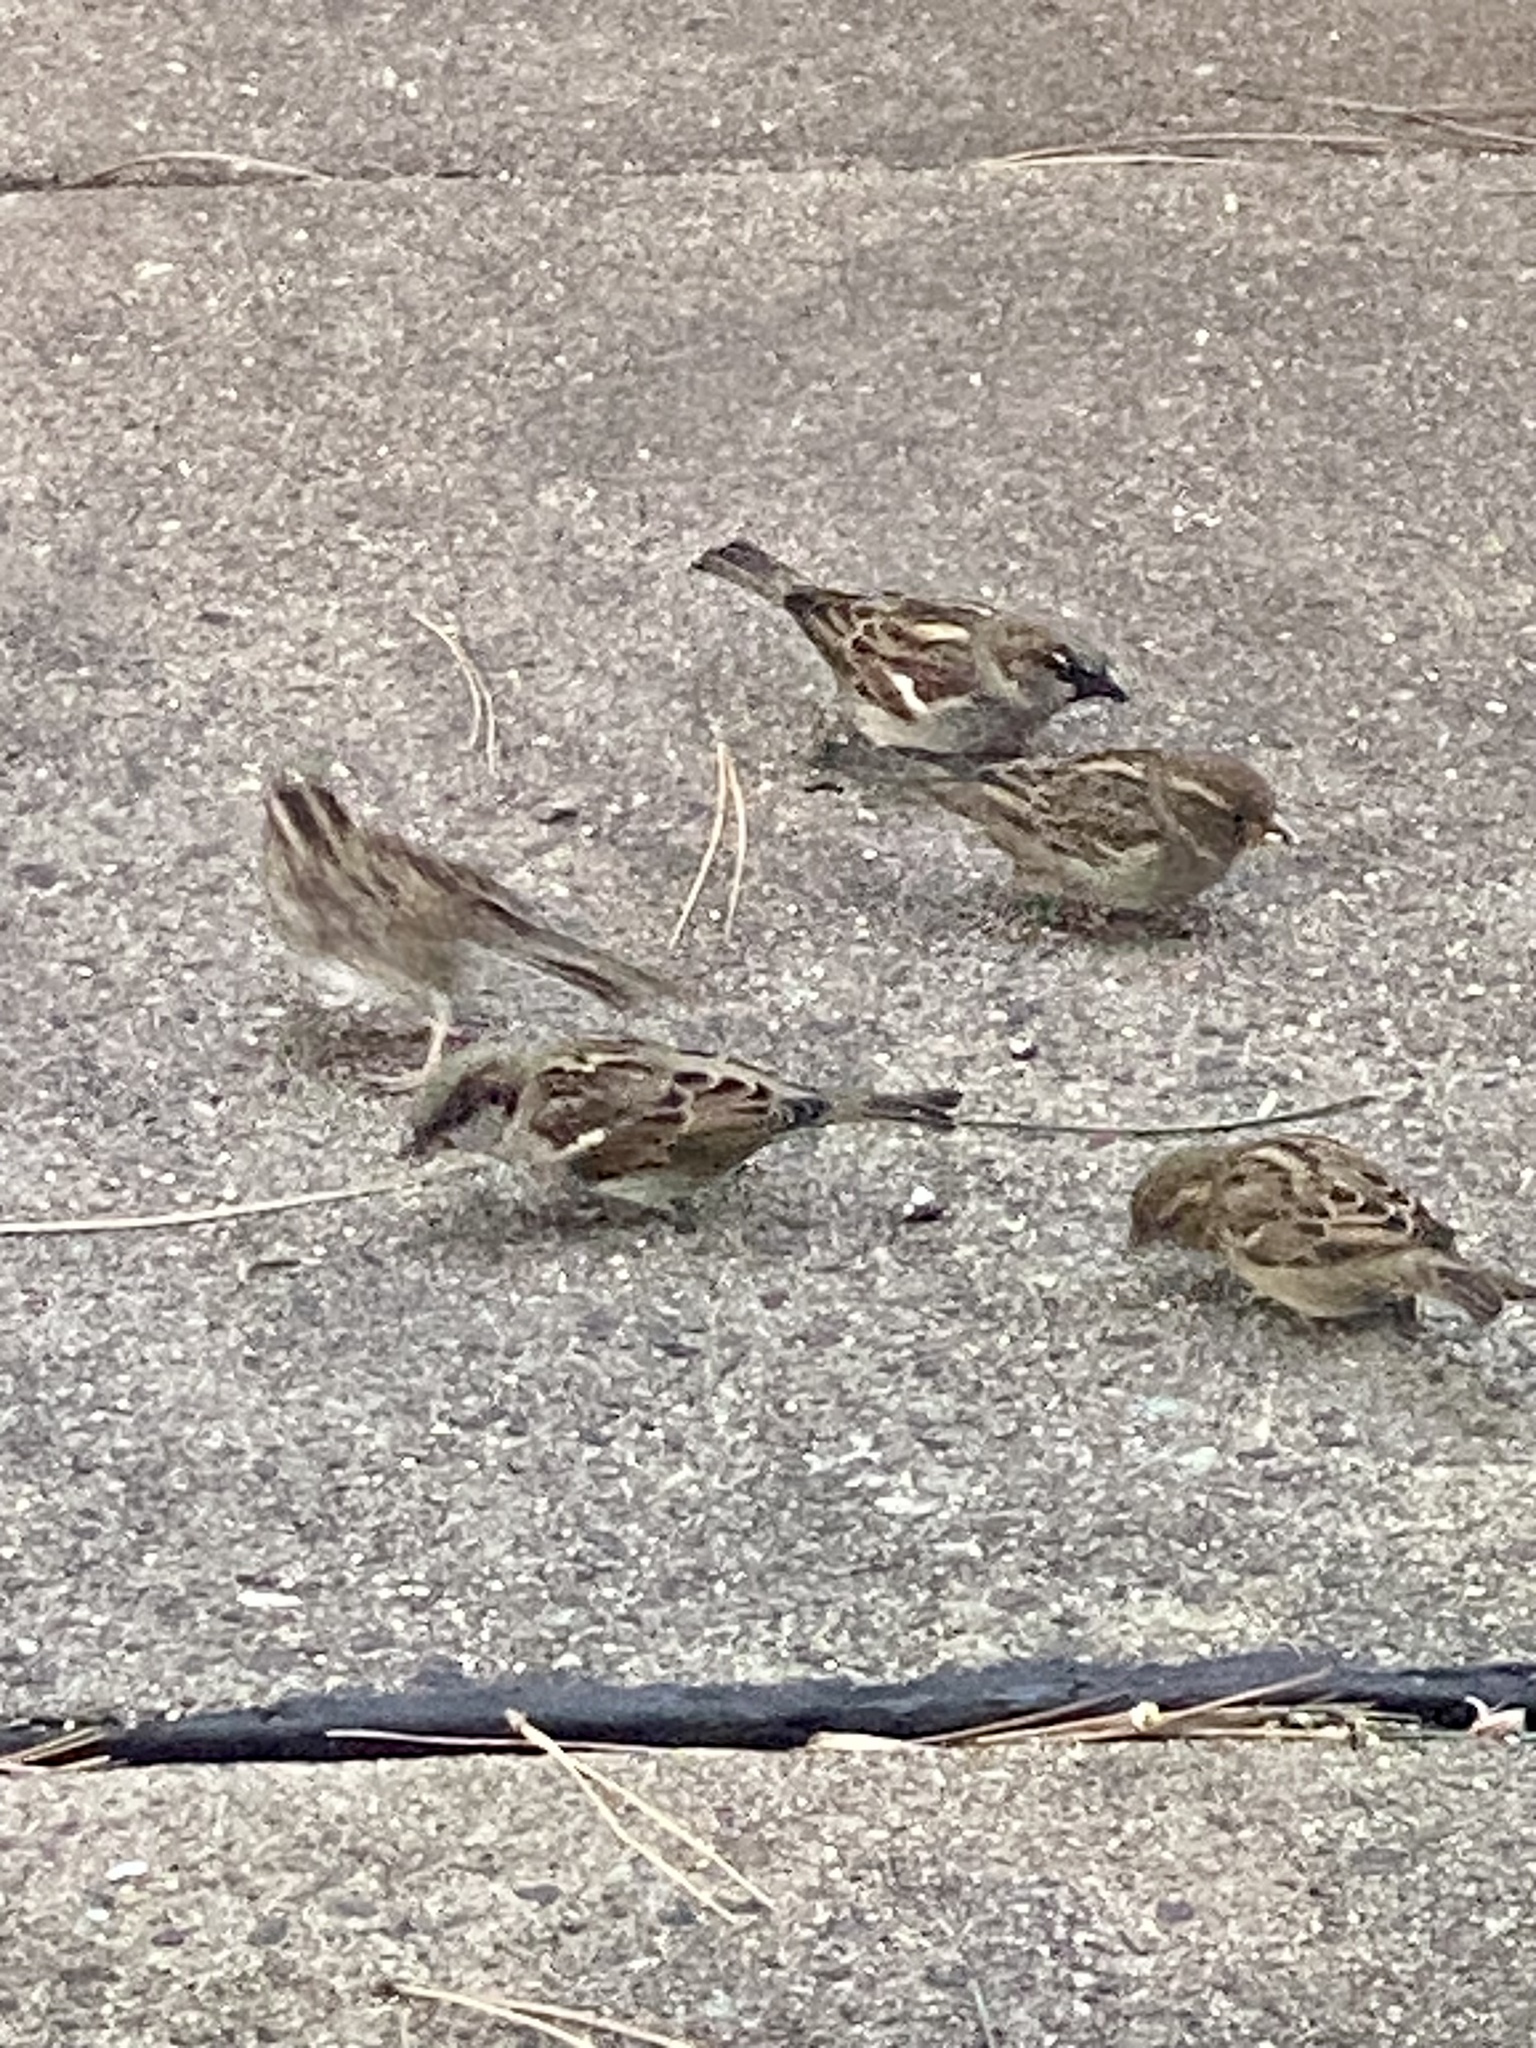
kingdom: Animalia
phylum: Chordata
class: Aves
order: Passeriformes
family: Passeridae
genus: Passer
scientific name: Passer domesticus
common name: House sparrow
